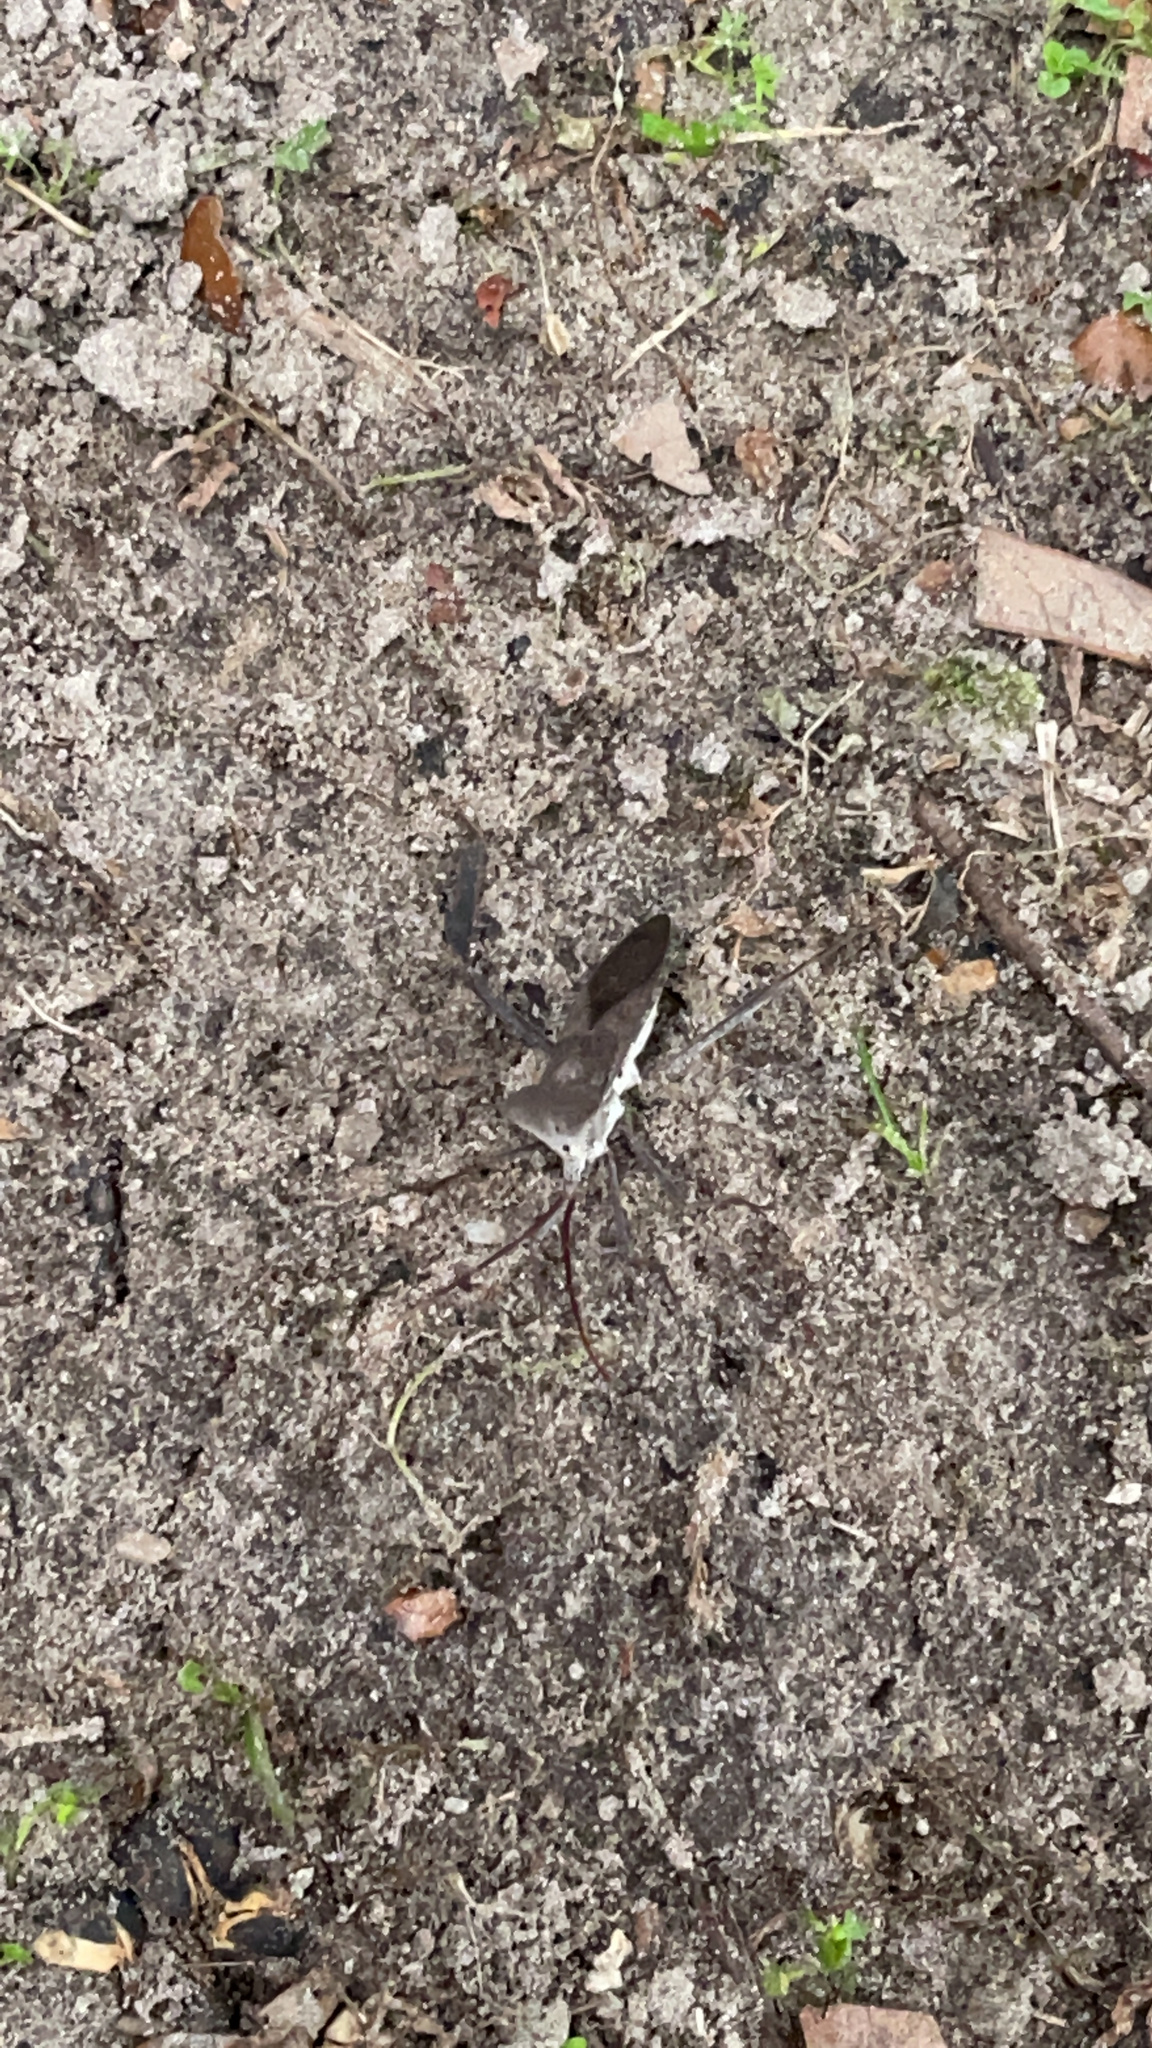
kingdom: Animalia
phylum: Arthropoda
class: Insecta
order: Hemiptera
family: Coreidae
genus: Acanthocephala
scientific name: Acanthocephala declivis
